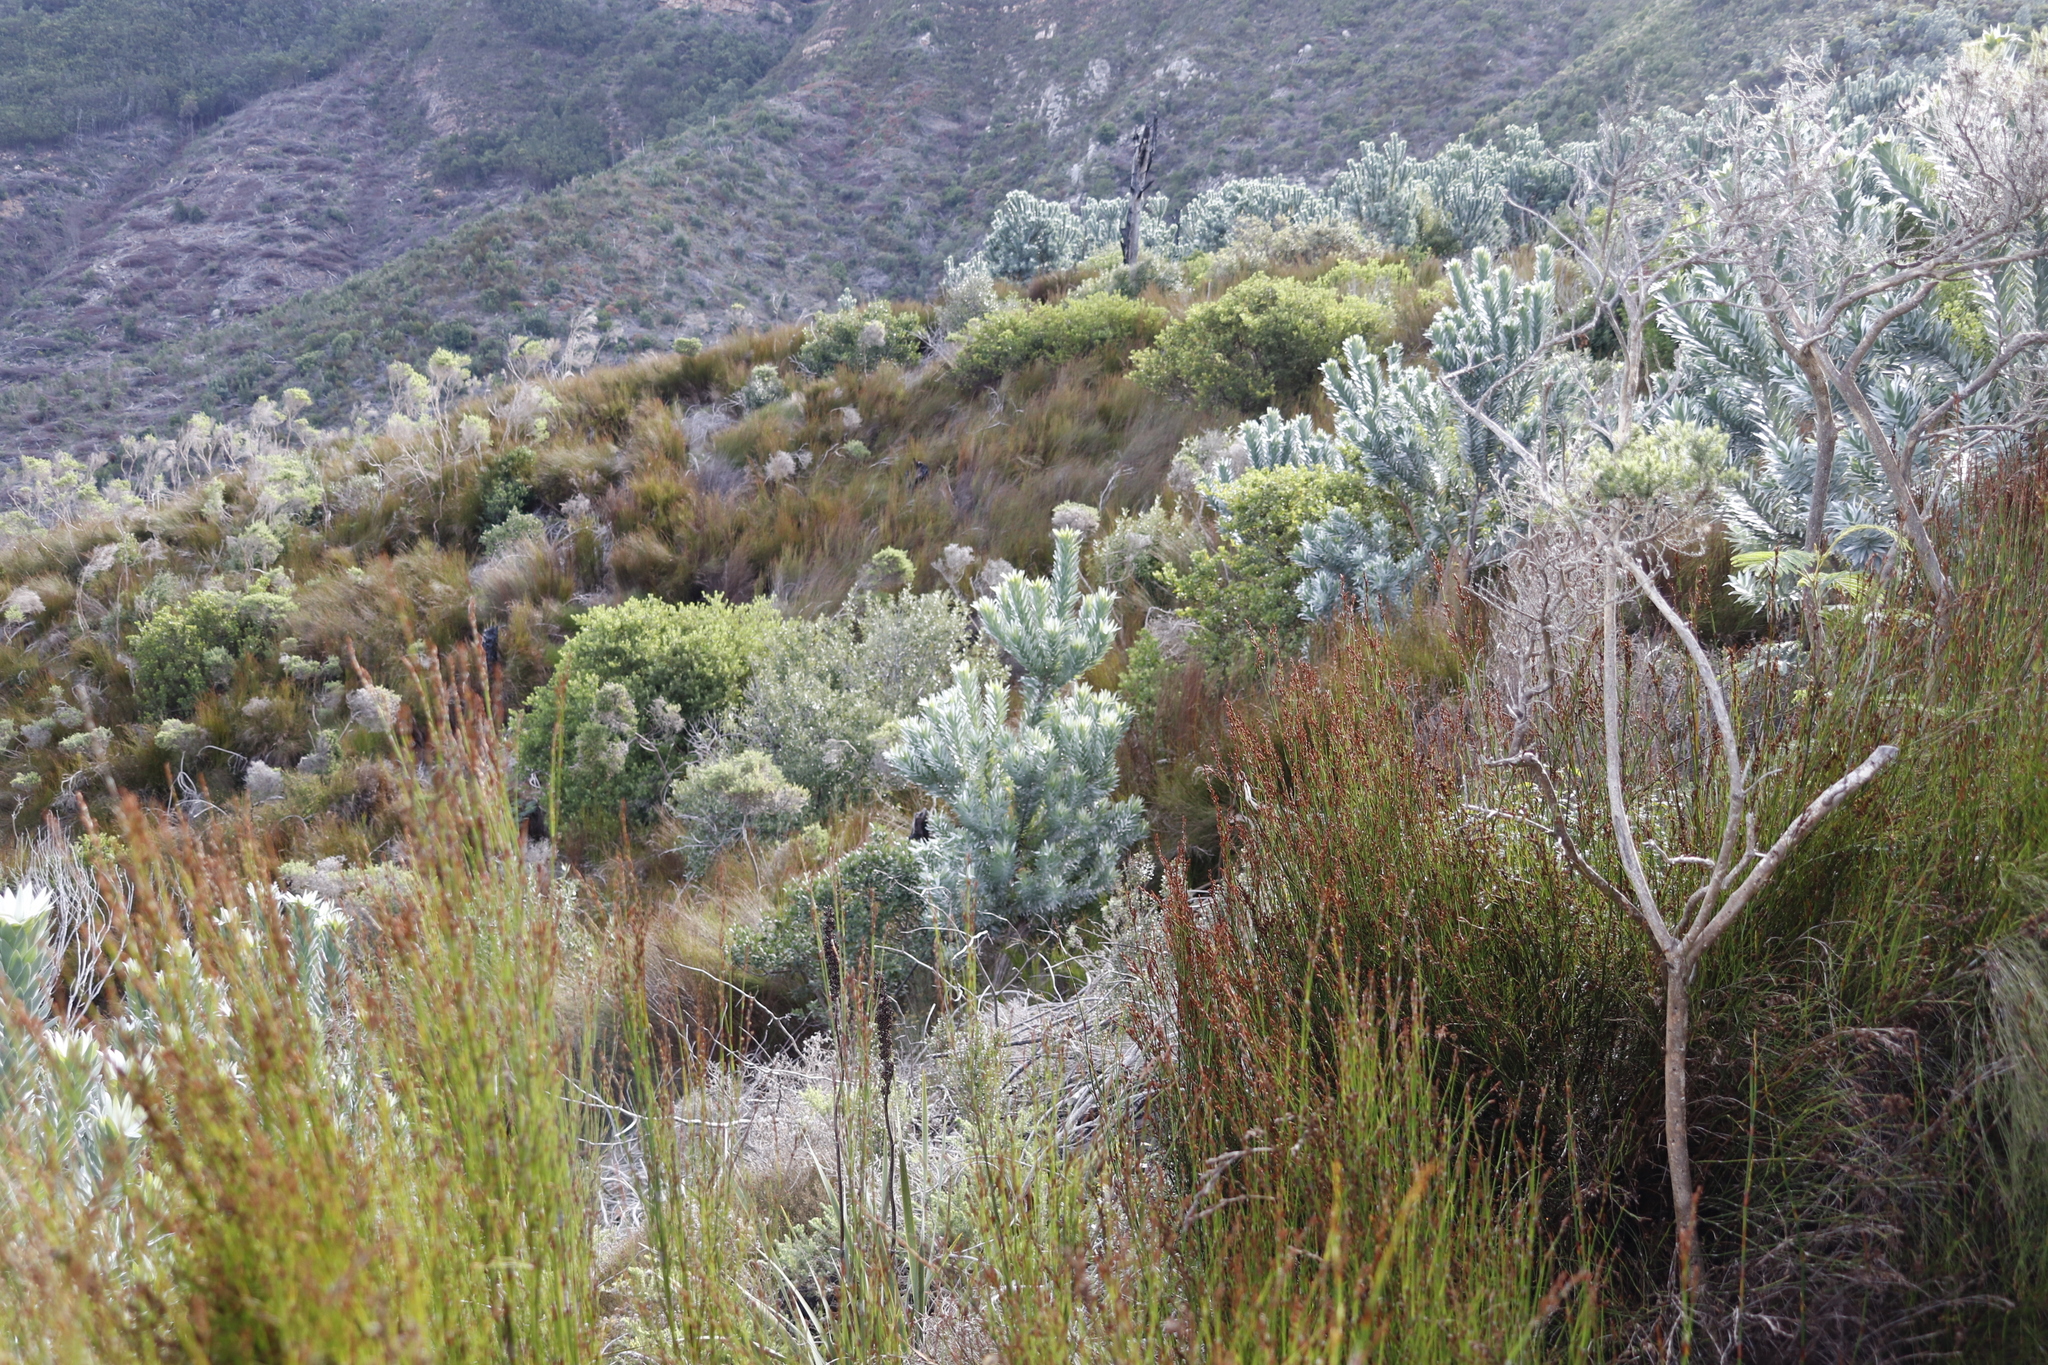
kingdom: Plantae
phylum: Tracheophyta
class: Magnoliopsida
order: Proteales
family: Proteaceae
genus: Leucadendron
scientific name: Leucadendron argenteum
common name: Cape silver tree
